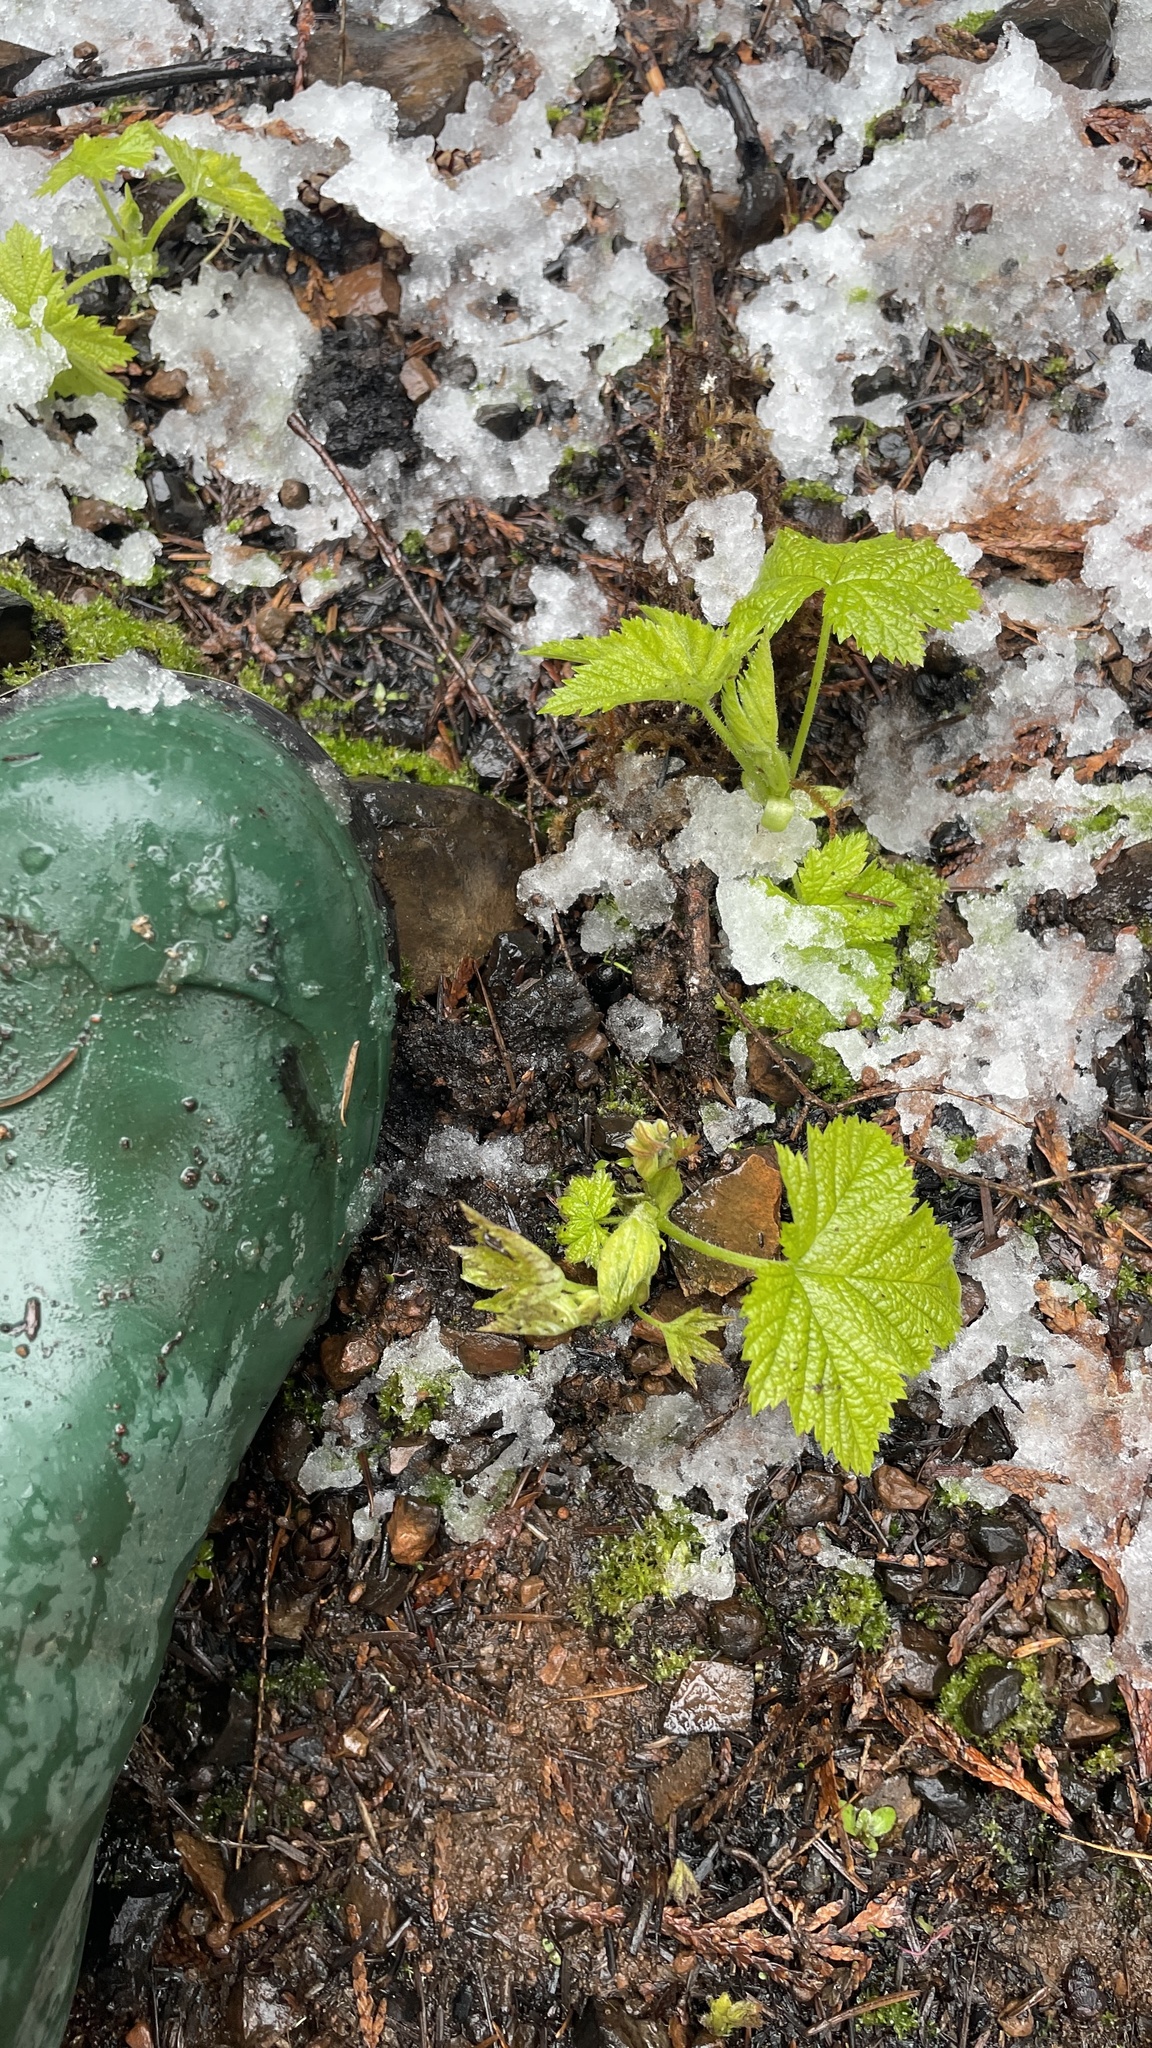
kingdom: Plantae
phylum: Tracheophyta
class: Magnoliopsida
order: Rosales
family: Rosaceae
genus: Rubus
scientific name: Rubus parviflorus
